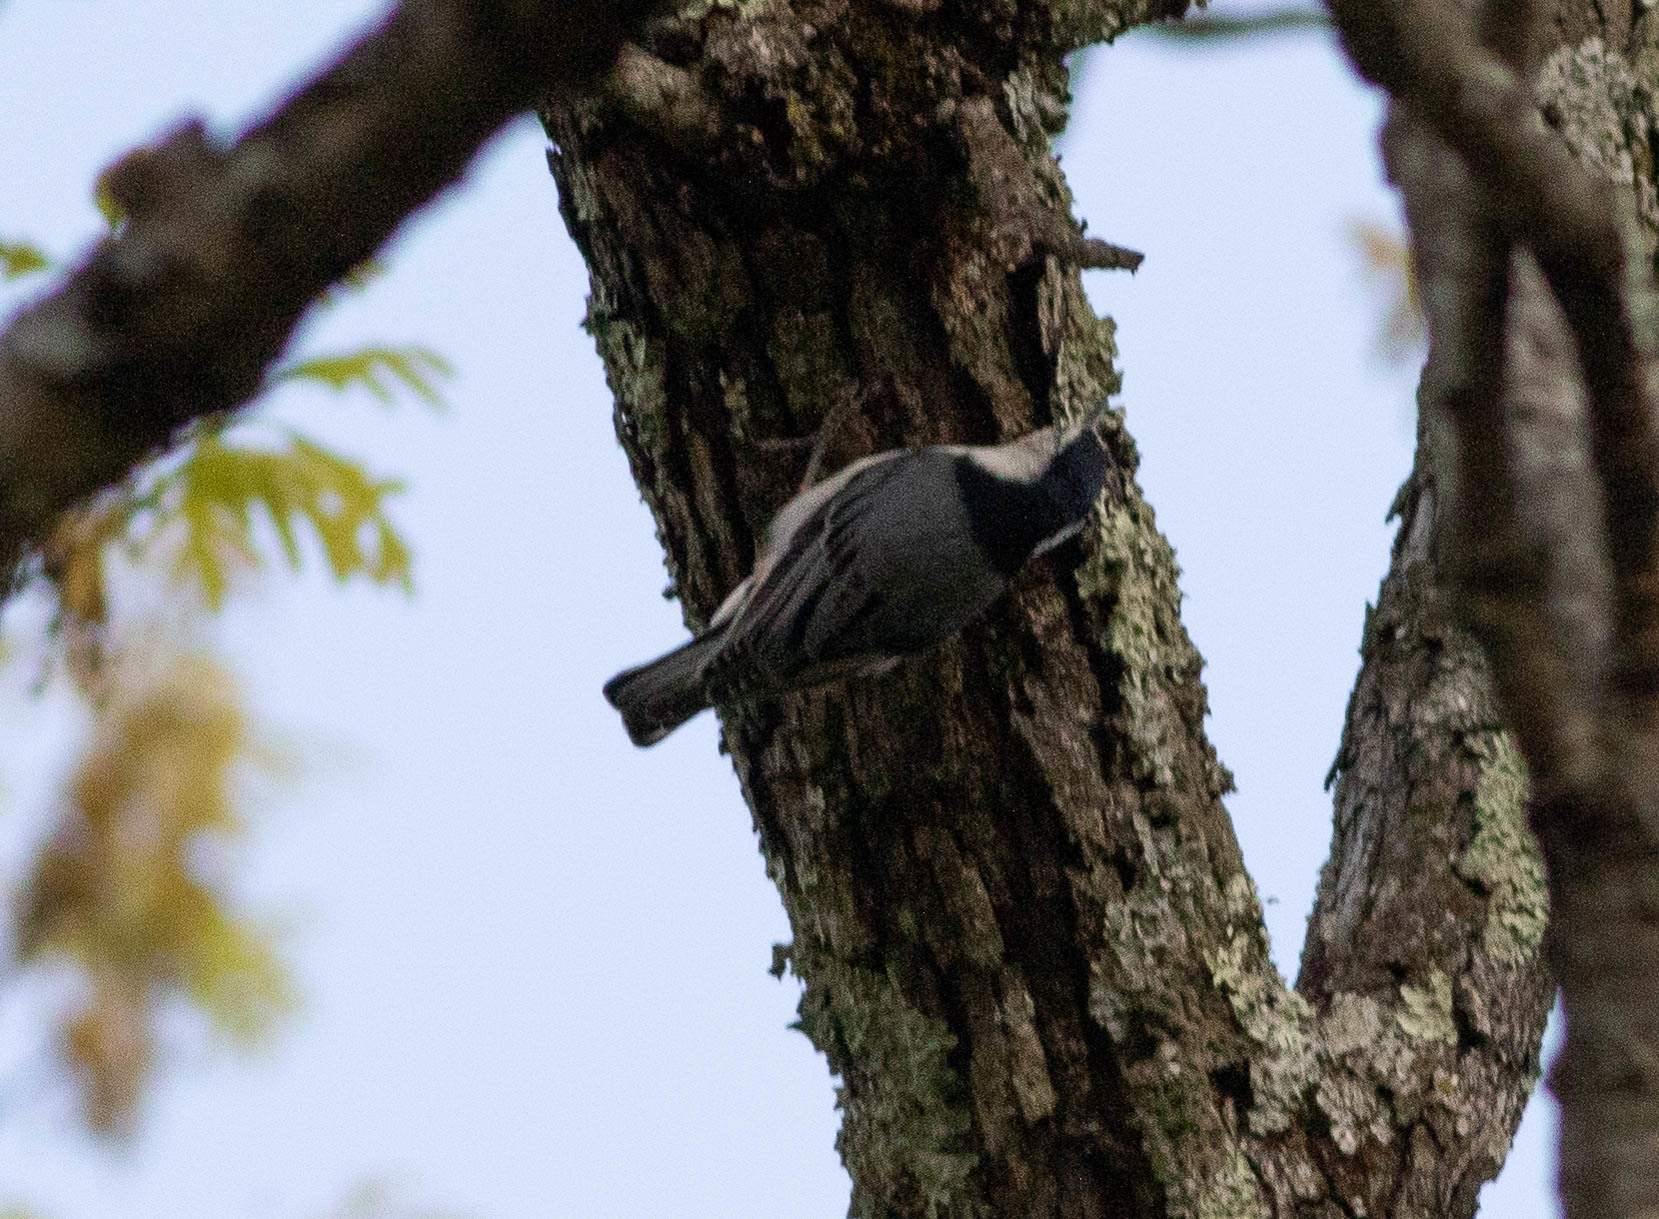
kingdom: Animalia
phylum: Chordata
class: Aves
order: Passeriformes
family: Sittidae
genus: Sitta
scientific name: Sitta carolinensis
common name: White-breasted nuthatch
